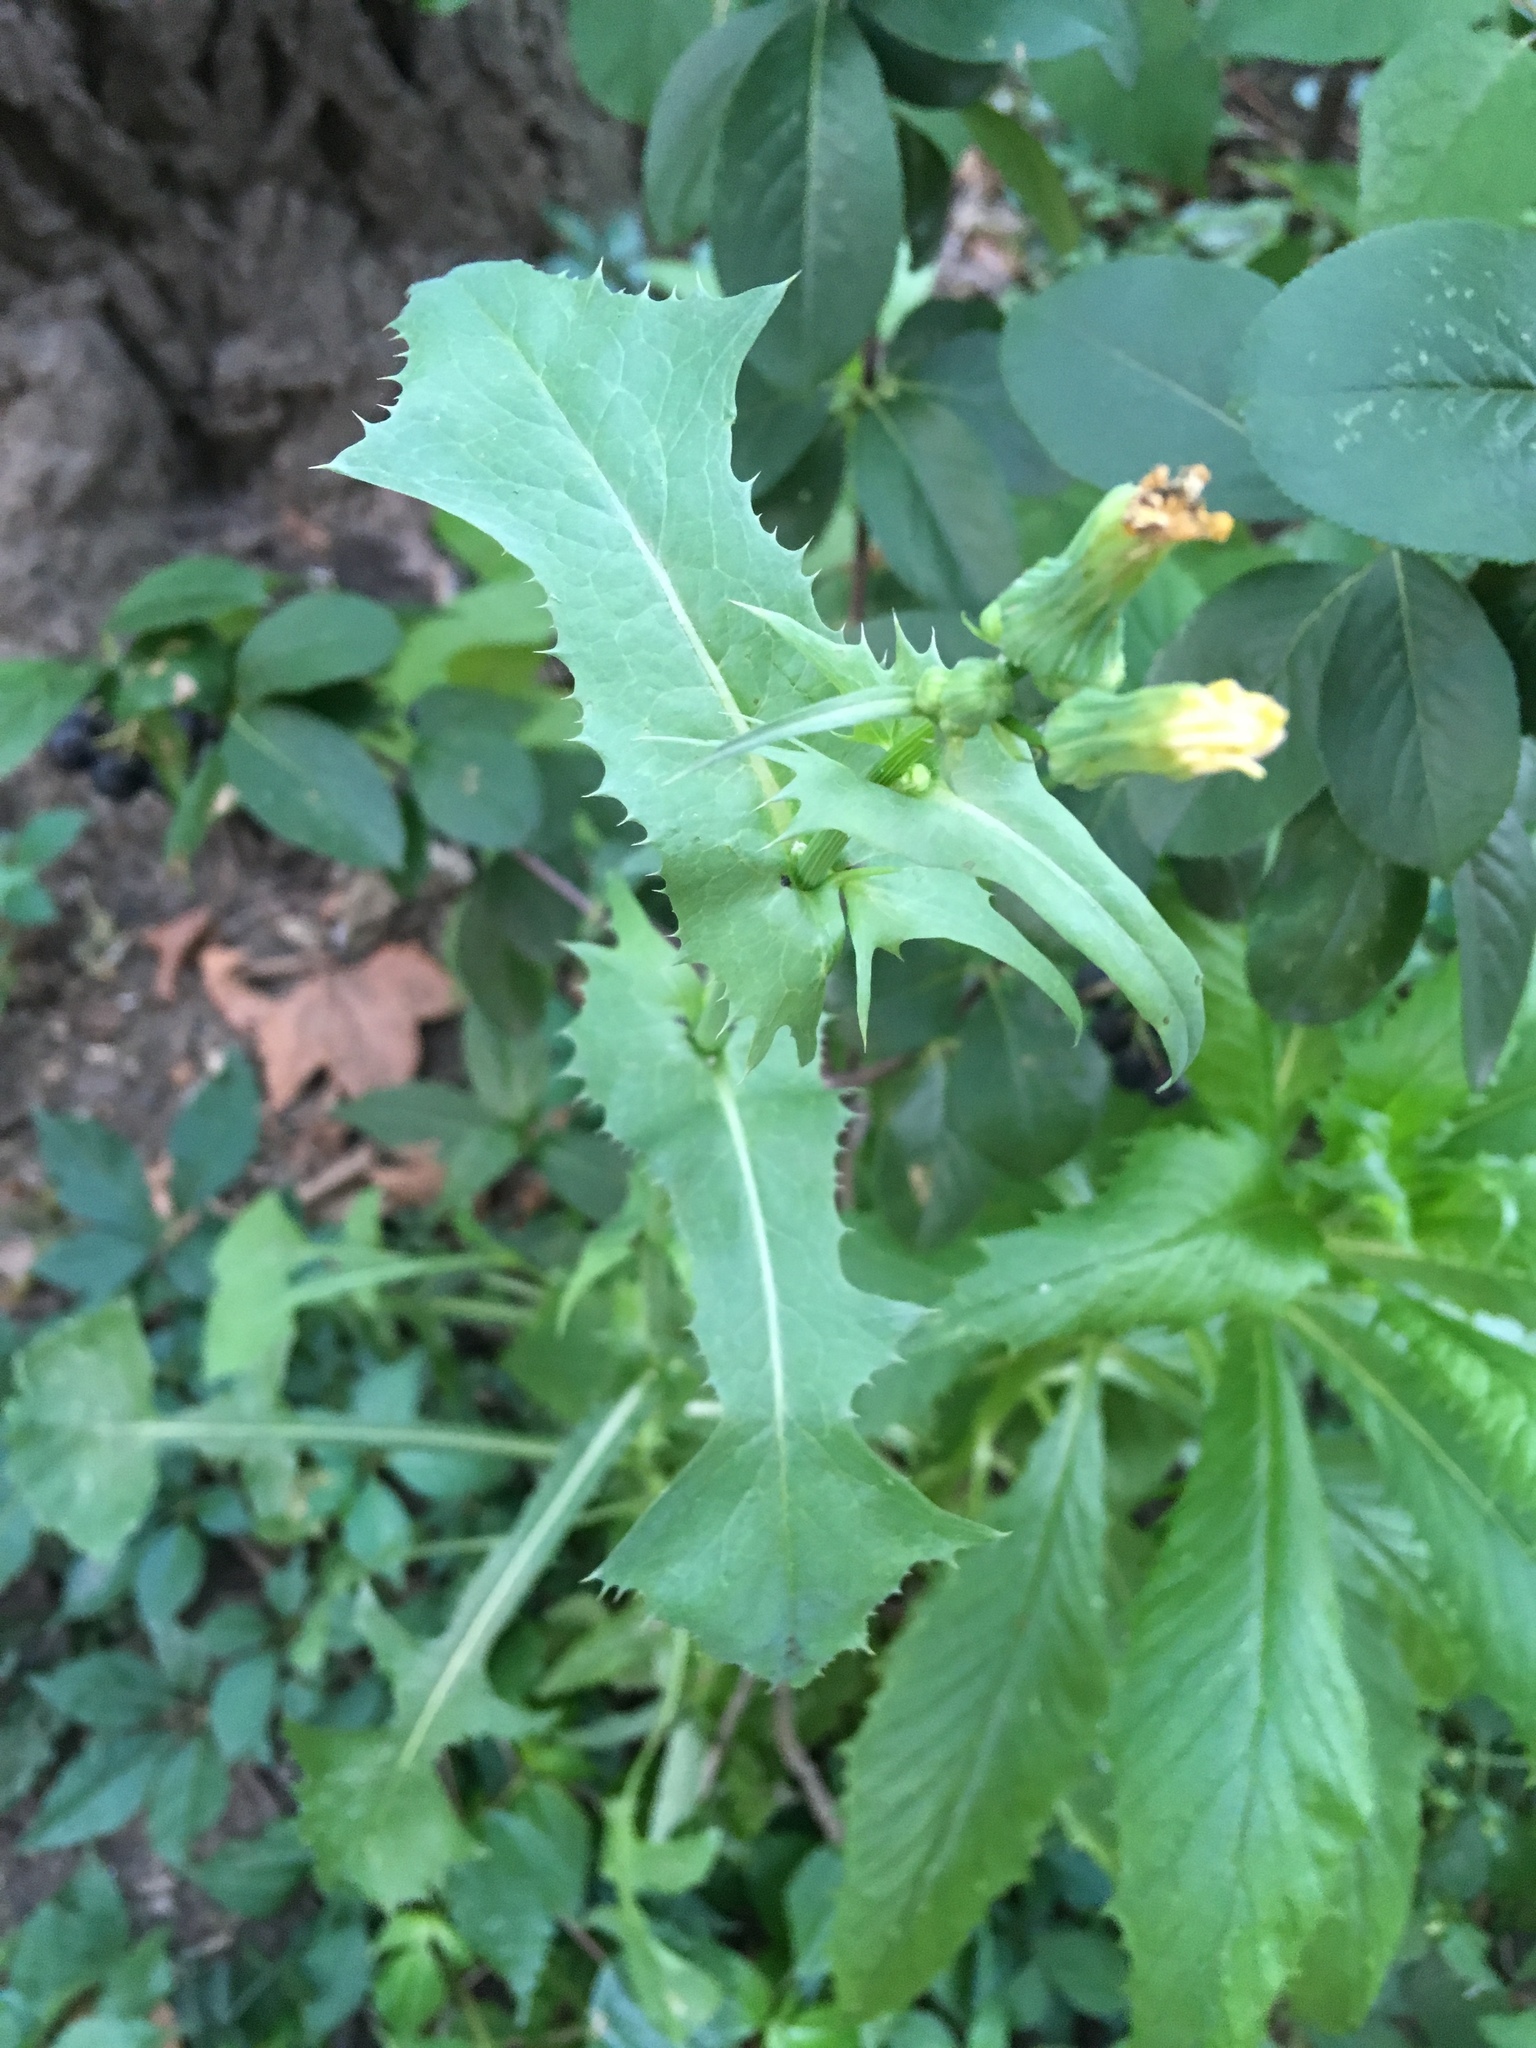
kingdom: Plantae
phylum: Tracheophyta
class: Magnoliopsida
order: Asterales
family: Asteraceae
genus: Sonchus
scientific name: Sonchus oleraceus
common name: Common sowthistle
